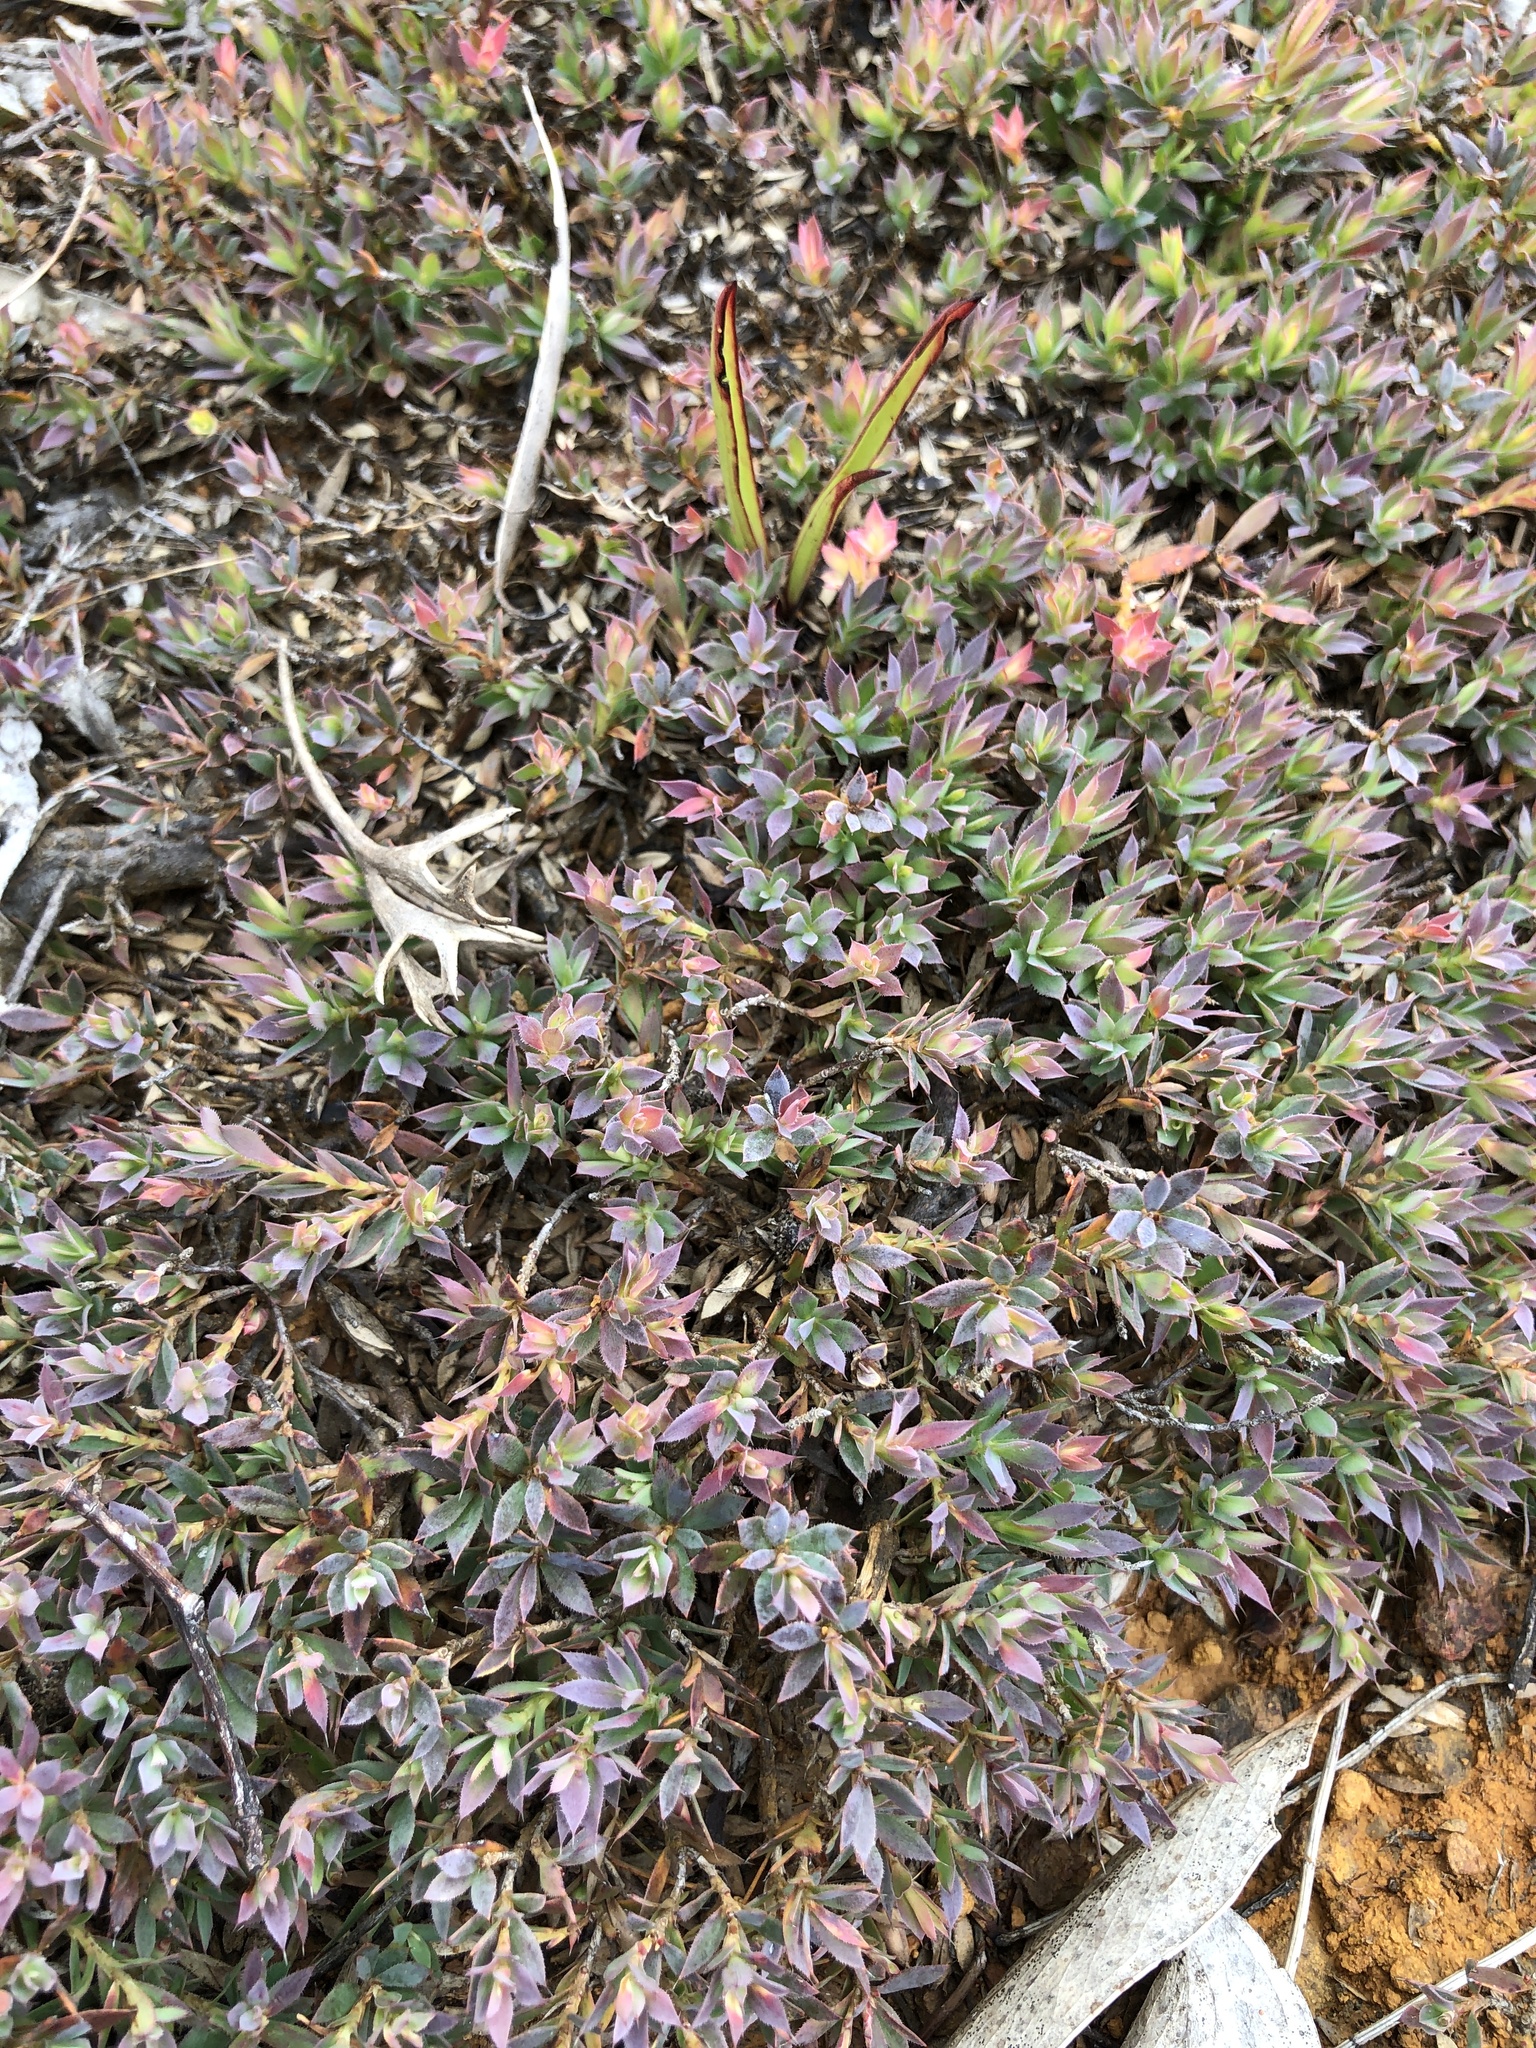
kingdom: Plantae
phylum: Tracheophyta
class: Magnoliopsida
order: Ericales
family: Ericaceae
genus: Styphelia
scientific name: Styphelia humifusa
